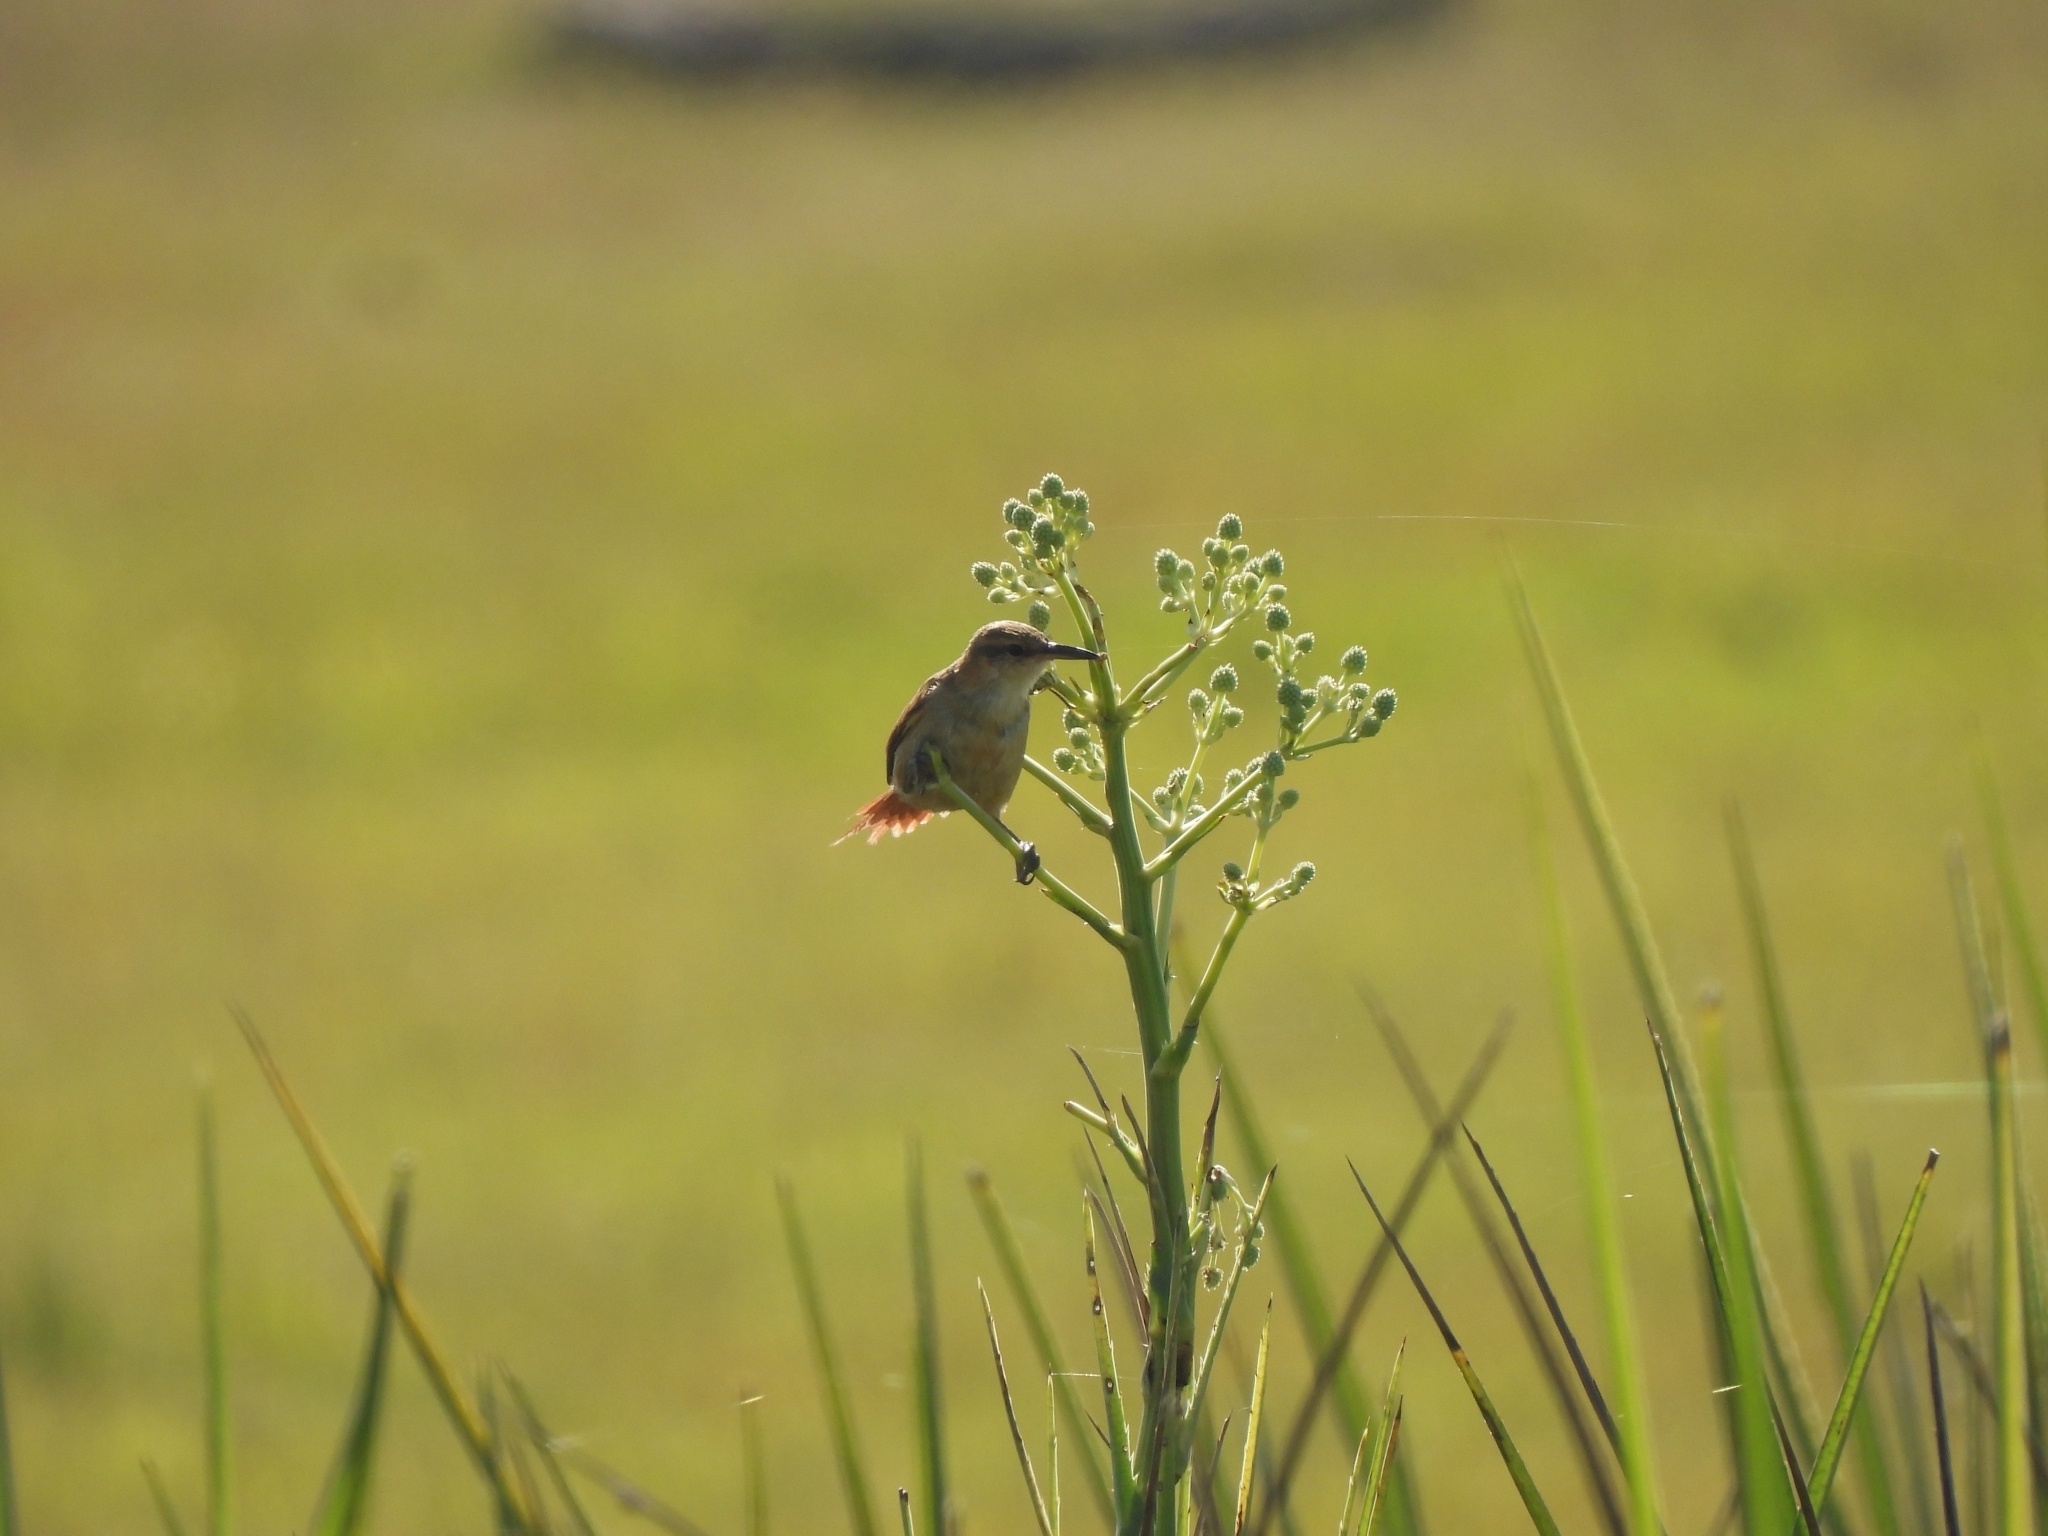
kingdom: Animalia
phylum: Chordata
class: Aves
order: Passeriformes
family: Furnariidae
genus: Limnornis
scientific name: Limnornis rectirostris
